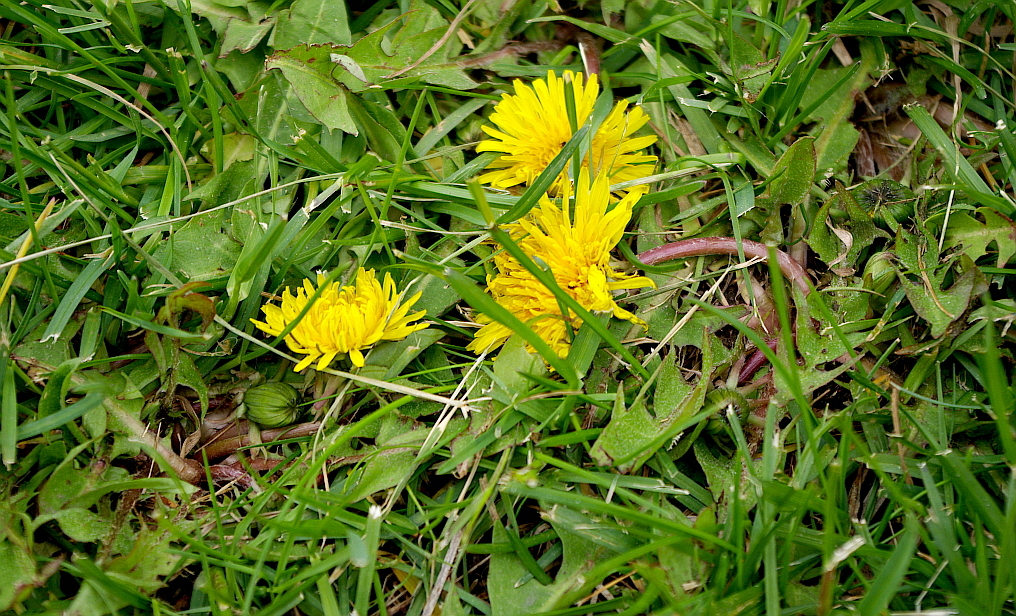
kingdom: Plantae
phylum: Tracheophyta
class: Magnoliopsida
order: Asterales
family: Asteraceae
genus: Taraxacum
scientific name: Taraxacum officinale
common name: Common dandelion
